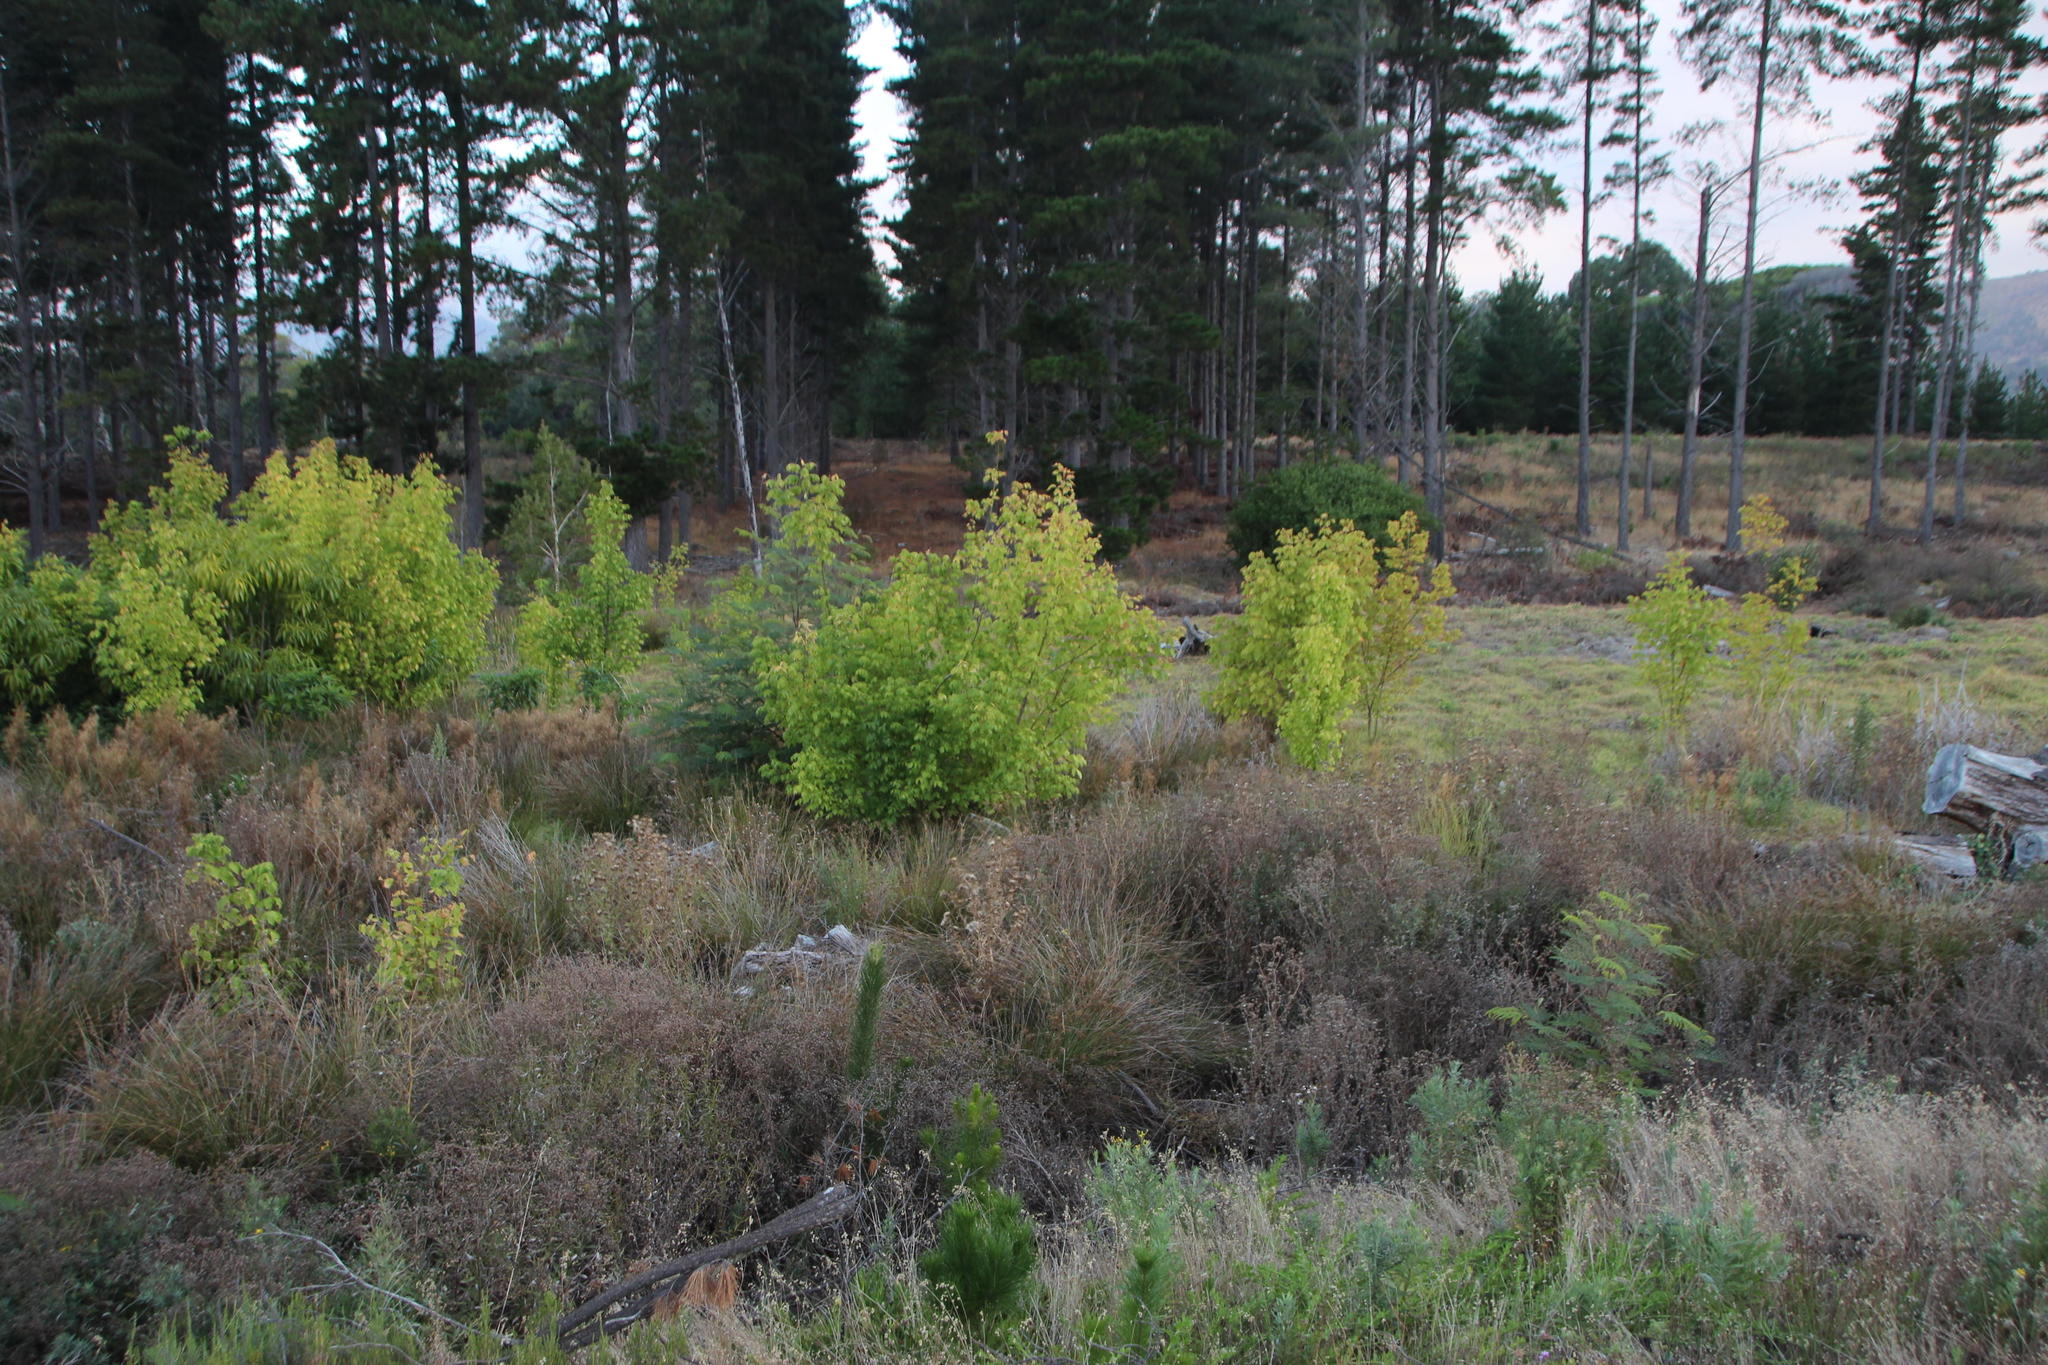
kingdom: Plantae
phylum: Tracheophyta
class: Magnoliopsida
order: Sapindales
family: Sapindaceae
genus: Acer
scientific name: Acer negundo
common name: Ashleaf maple
